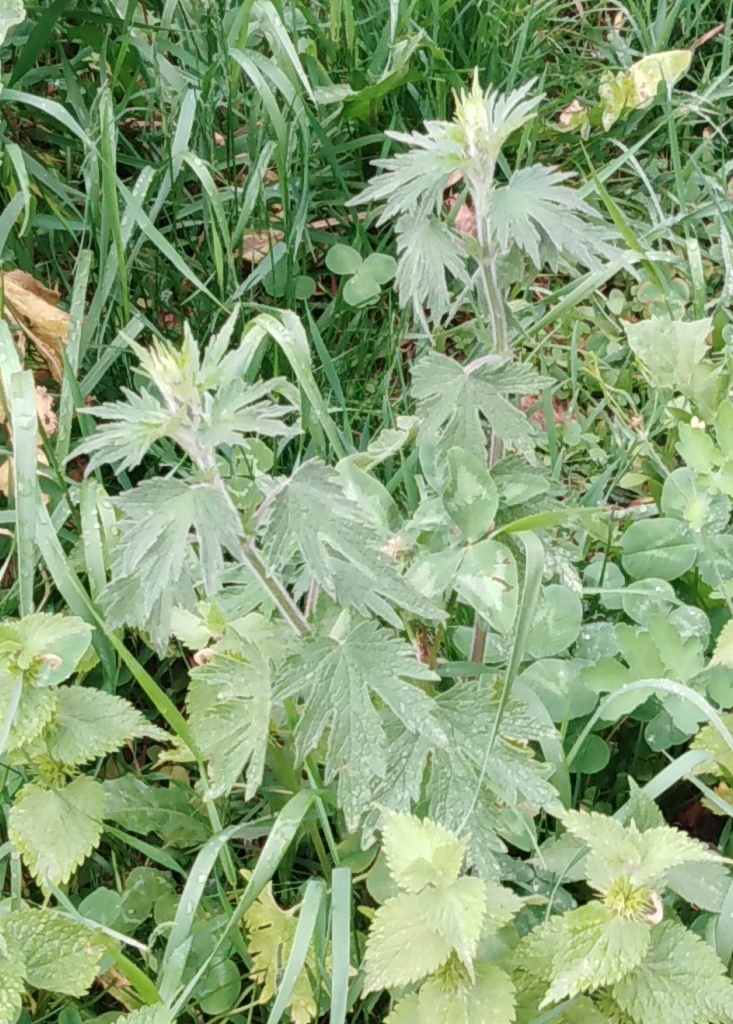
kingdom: Plantae
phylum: Tracheophyta
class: Magnoliopsida
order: Lamiales
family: Lamiaceae
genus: Leonurus
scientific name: Leonurus quinquelobatus
